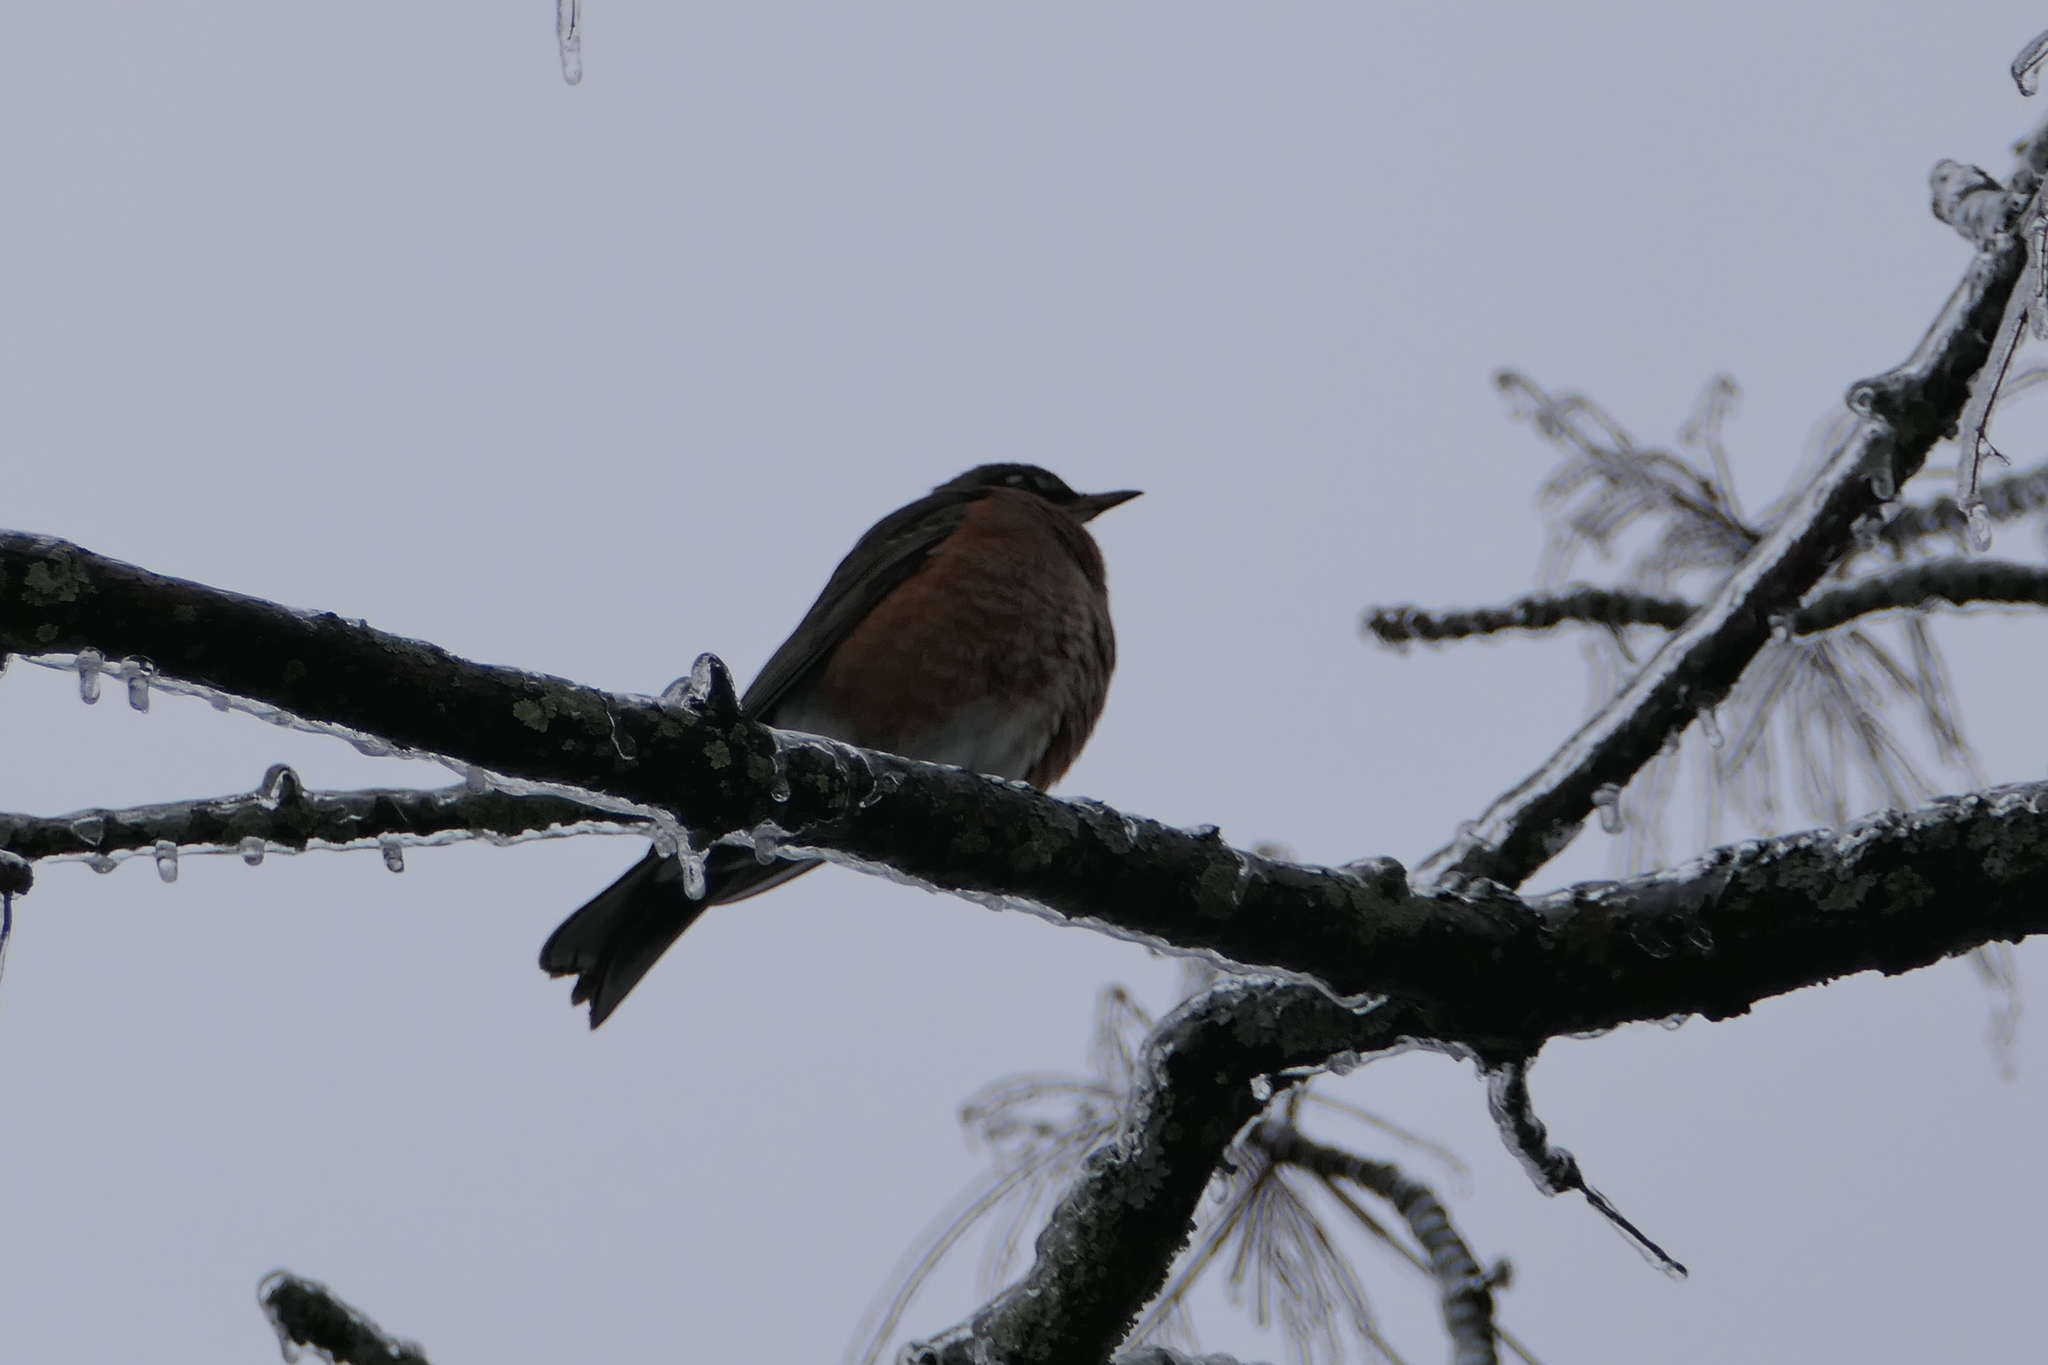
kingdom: Animalia
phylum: Chordata
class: Aves
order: Passeriformes
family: Turdidae
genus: Turdus
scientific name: Turdus migratorius
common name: American robin
